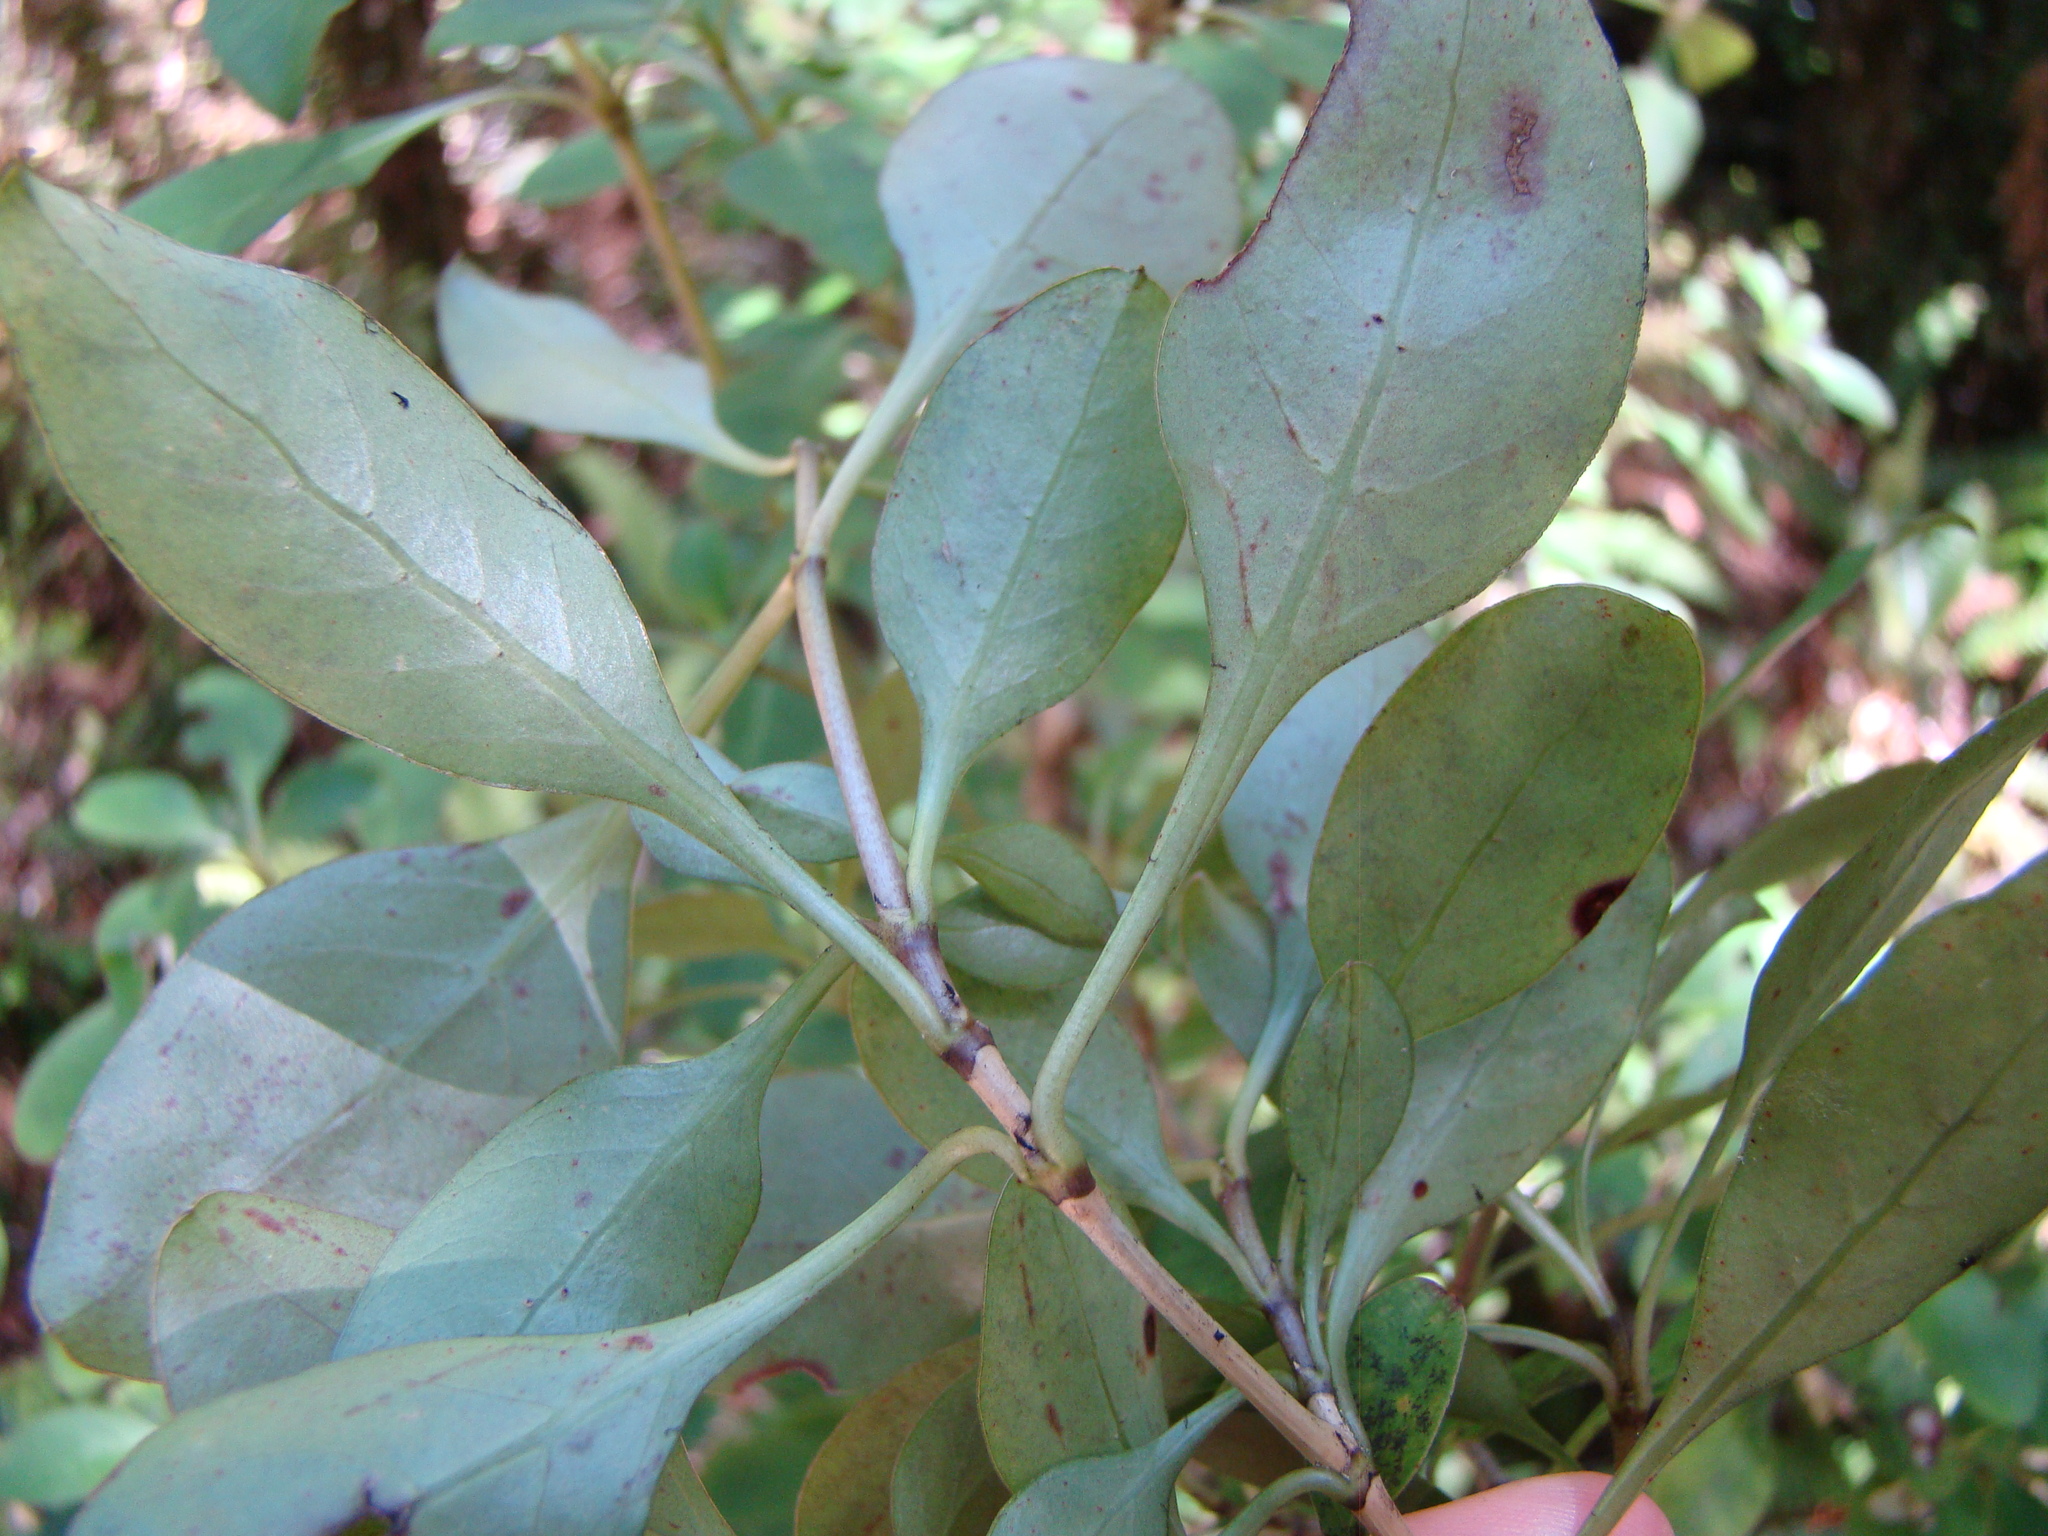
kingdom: Plantae
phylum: Tracheophyta
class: Magnoliopsida
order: Gentianales
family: Rubiaceae
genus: Coprosma
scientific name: Coprosma autumnalis
